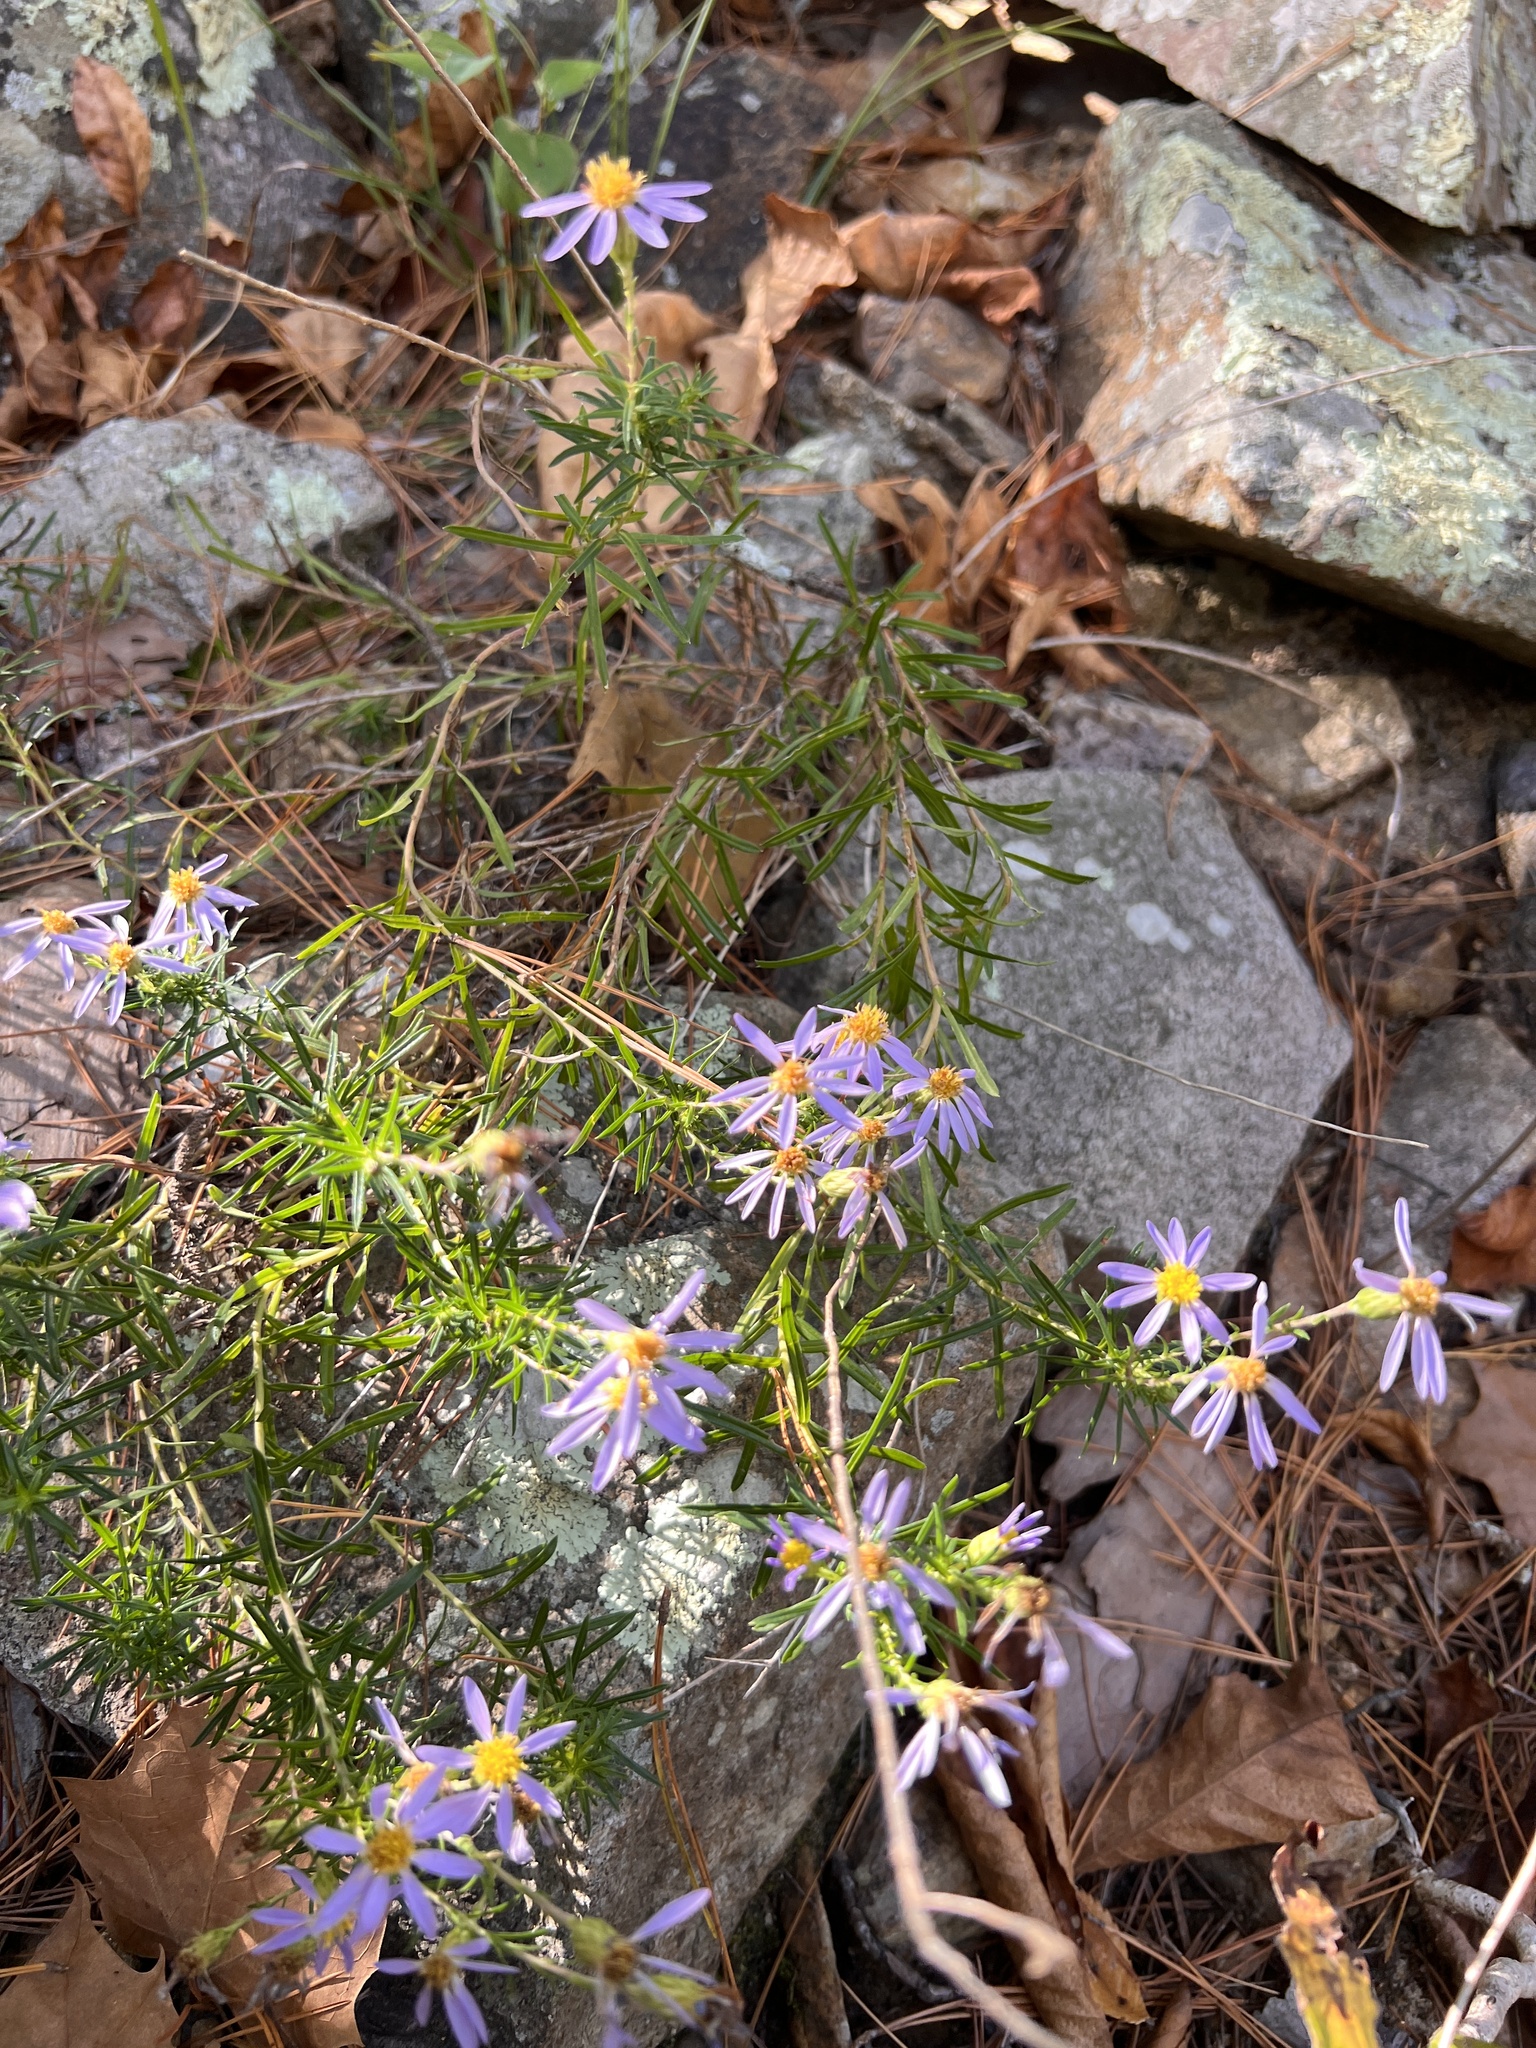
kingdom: Plantae
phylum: Tracheophyta
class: Magnoliopsida
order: Asterales
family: Asteraceae
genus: Ionactis
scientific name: Ionactis linariifolia
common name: Flax-leaf aster
